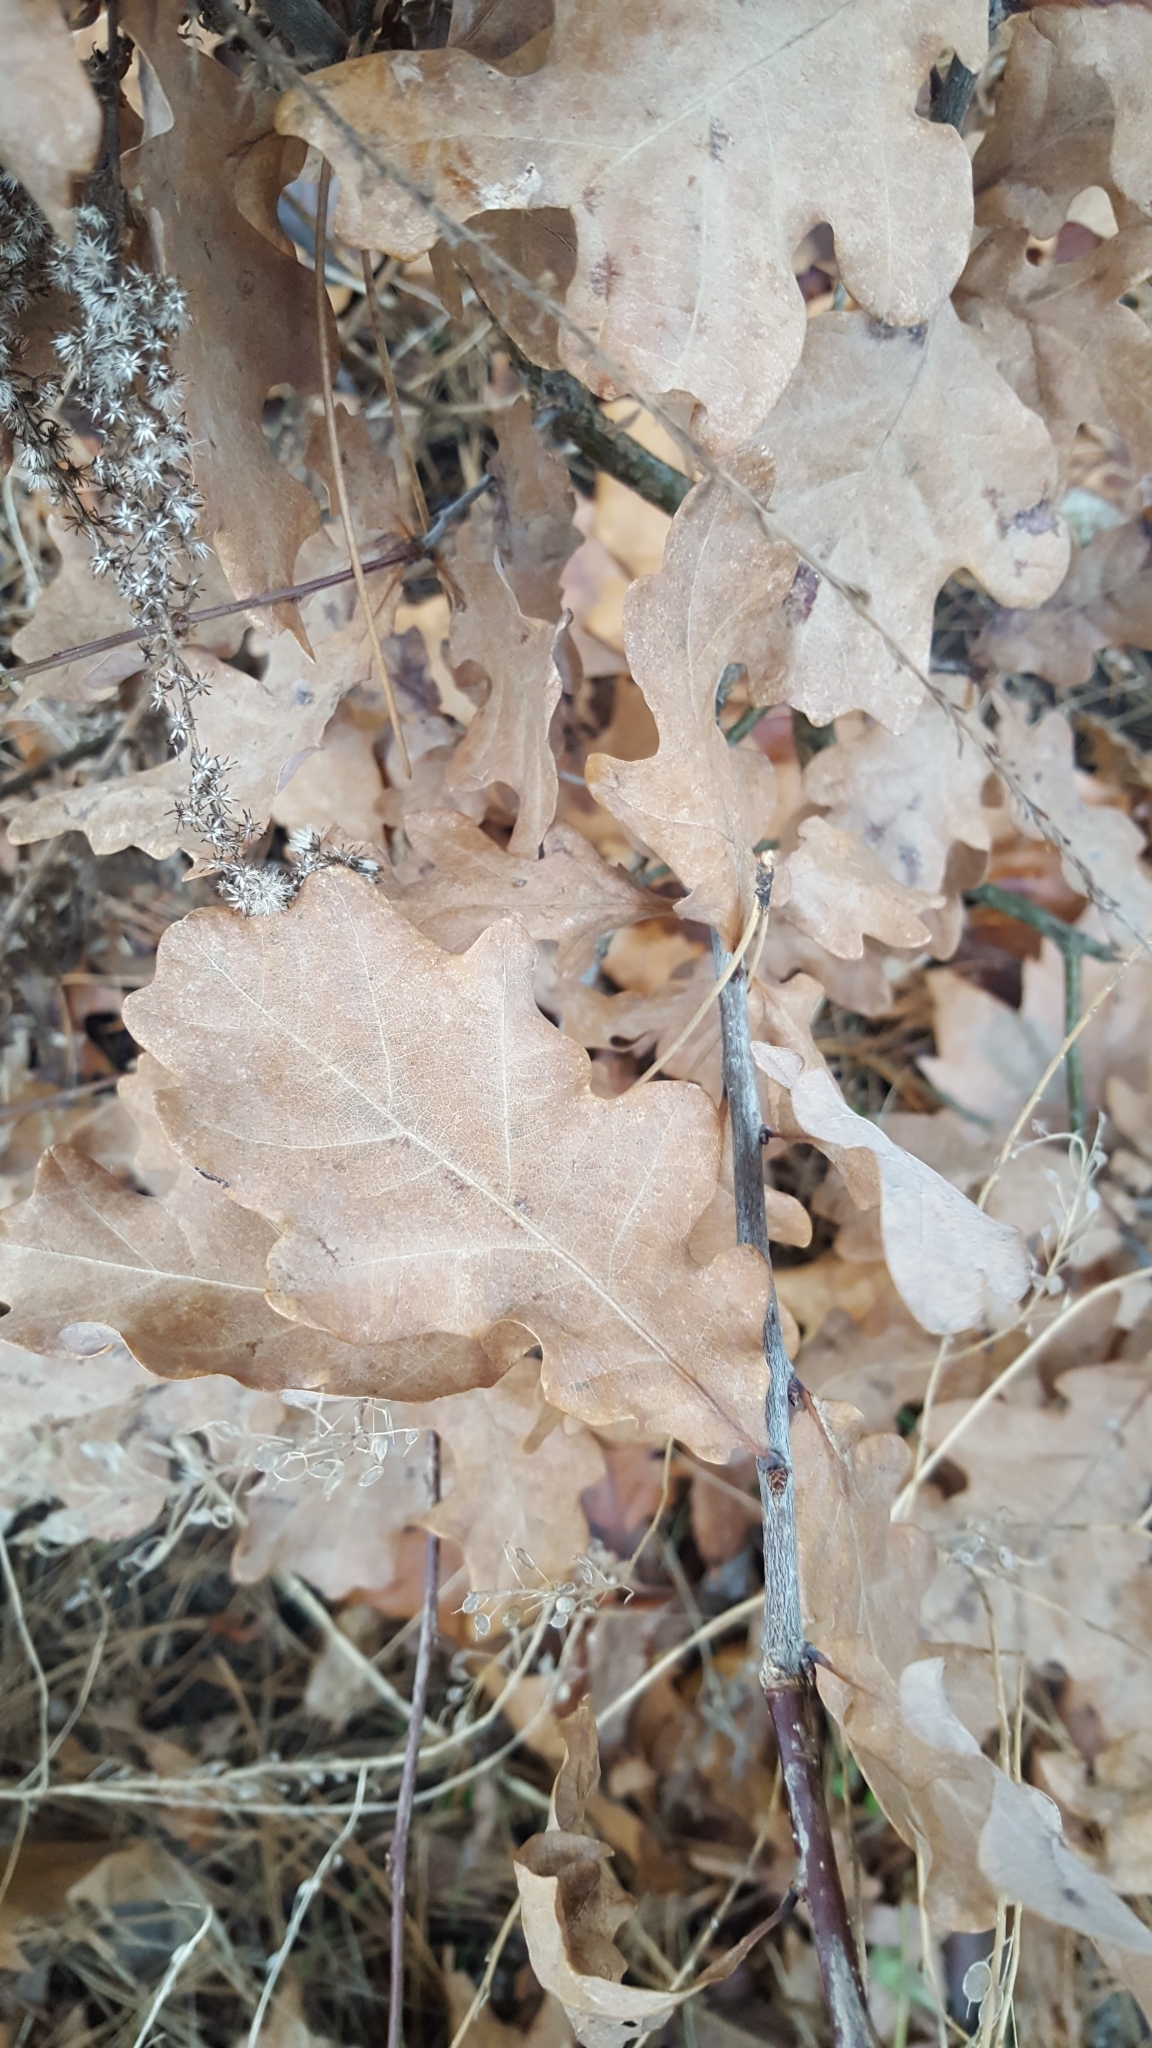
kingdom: Plantae
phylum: Tracheophyta
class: Magnoliopsida
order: Fagales
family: Fagaceae
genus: Quercus
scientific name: Quercus robur
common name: Pedunculate oak
